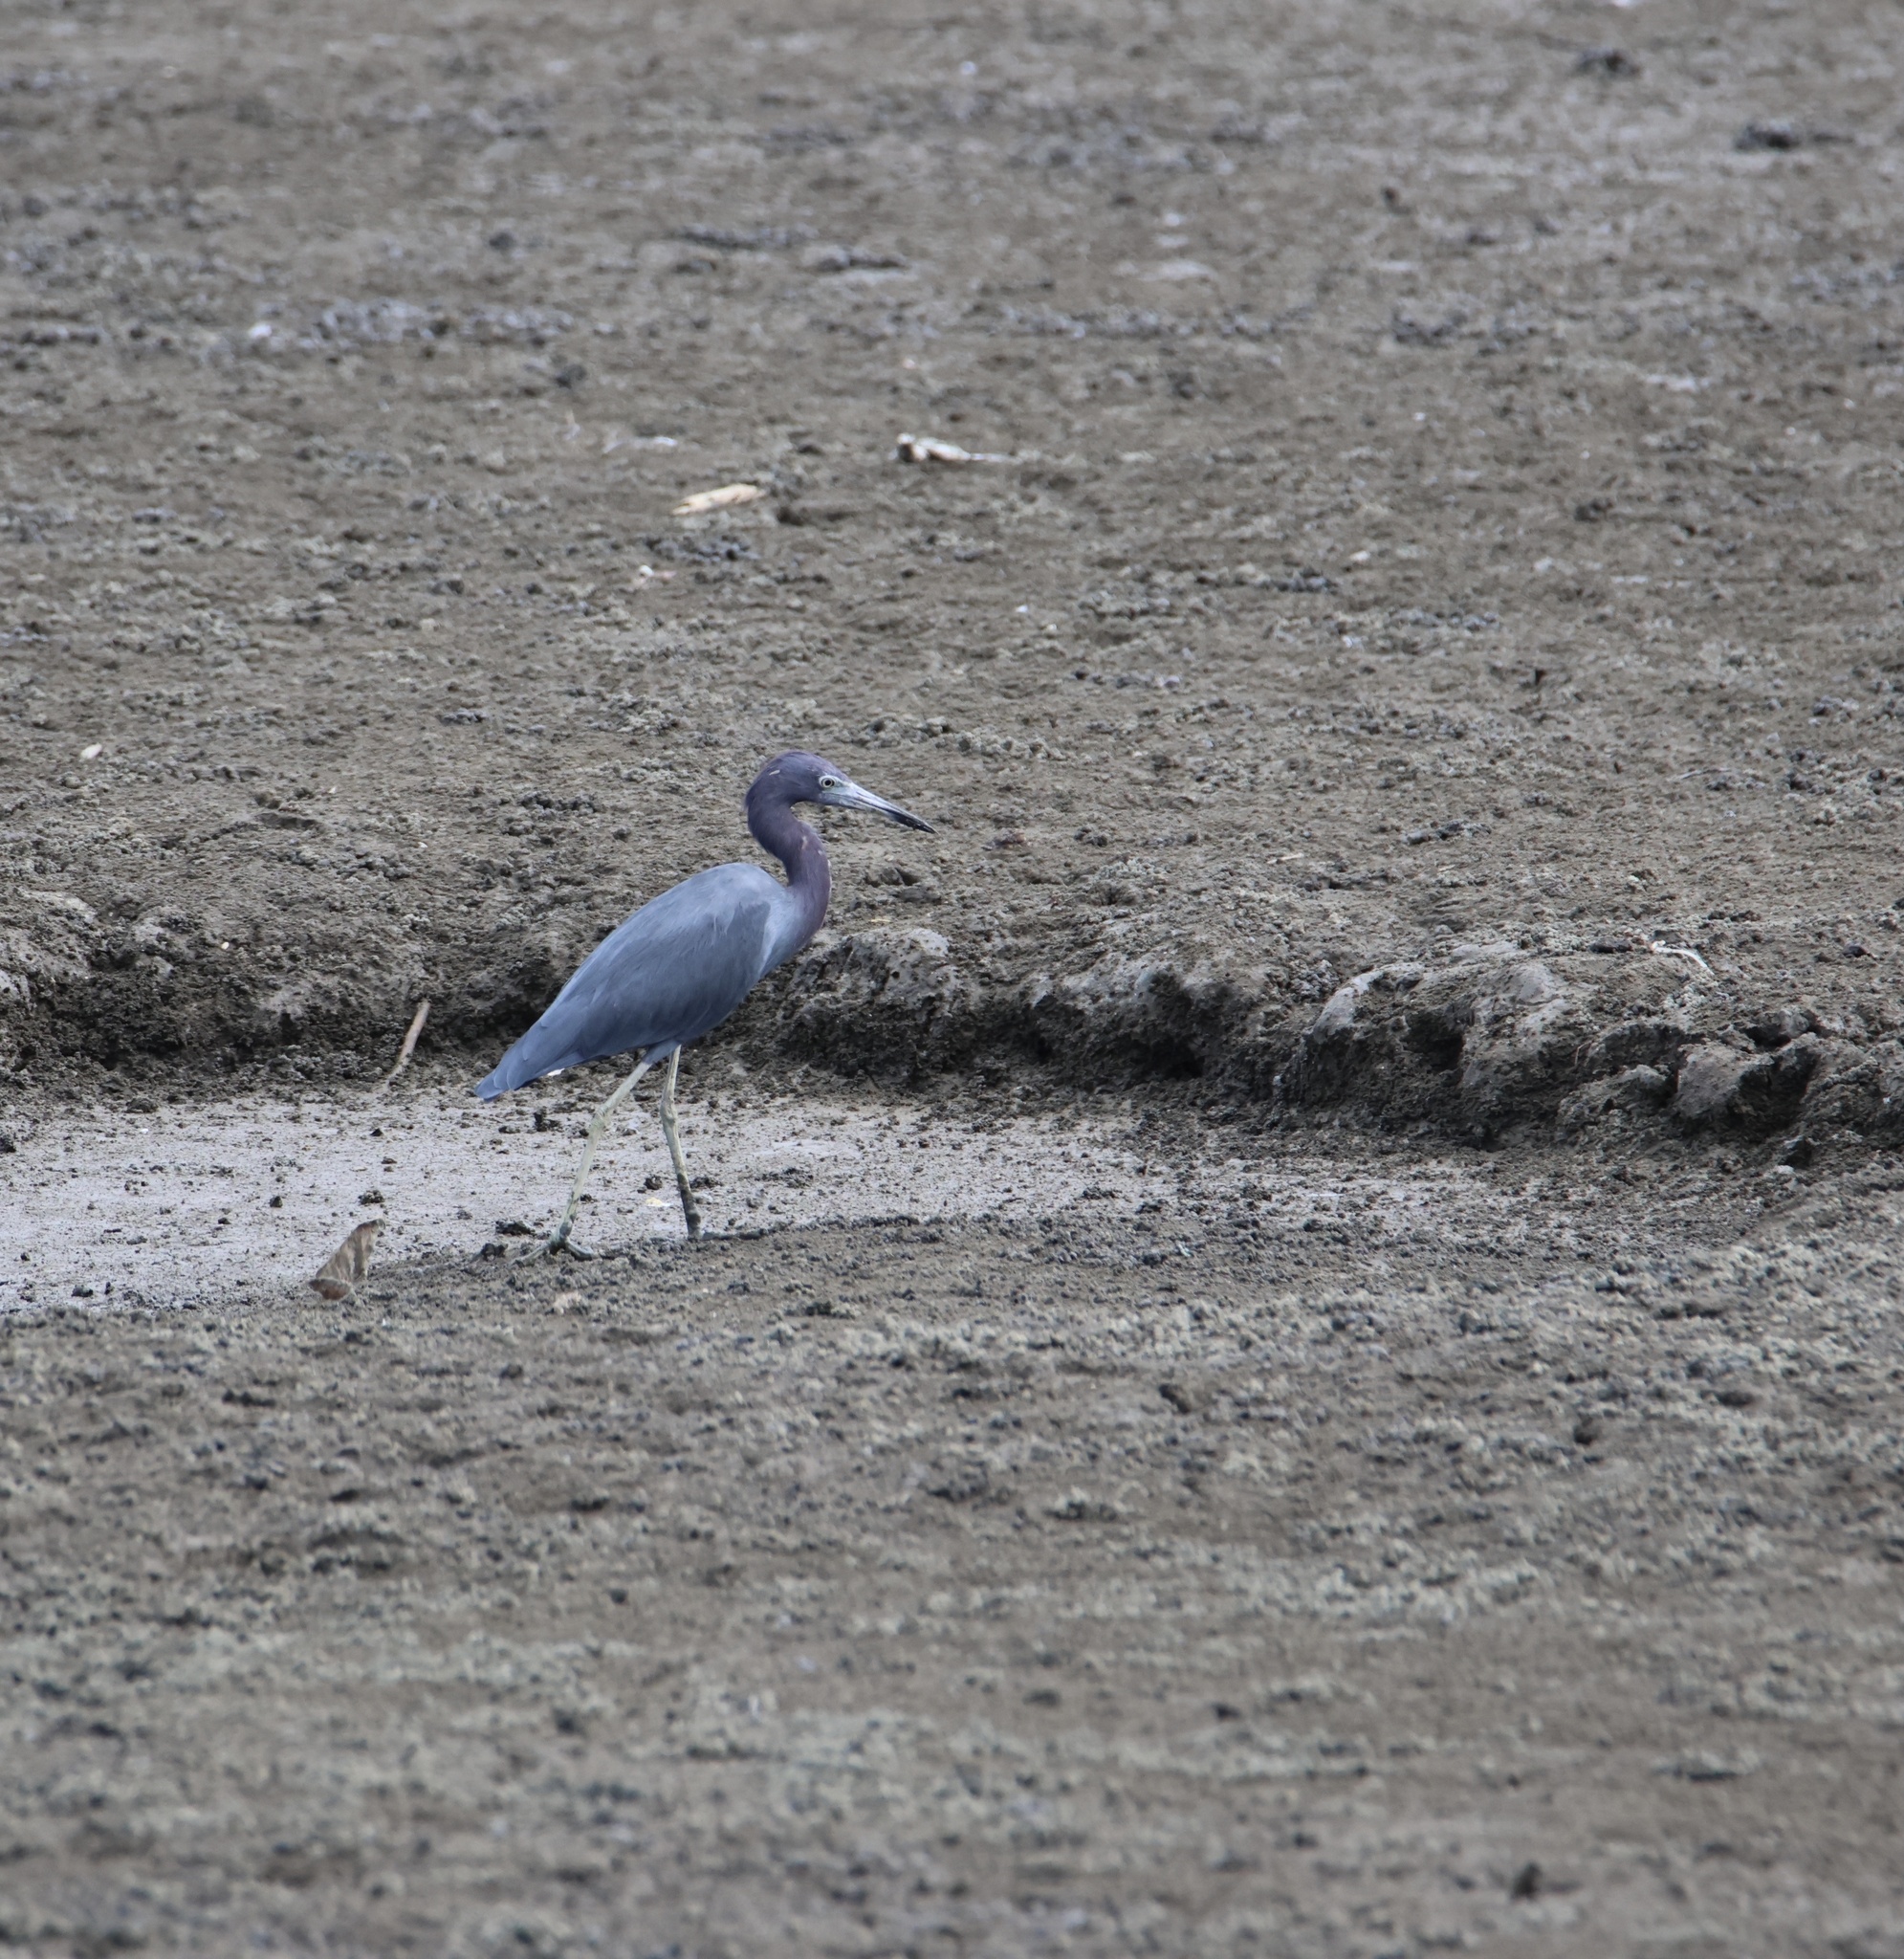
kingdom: Animalia
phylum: Chordata
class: Aves
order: Pelecaniformes
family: Ardeidae
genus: Egretta
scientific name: Egretta caerulea
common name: Little blue heron
